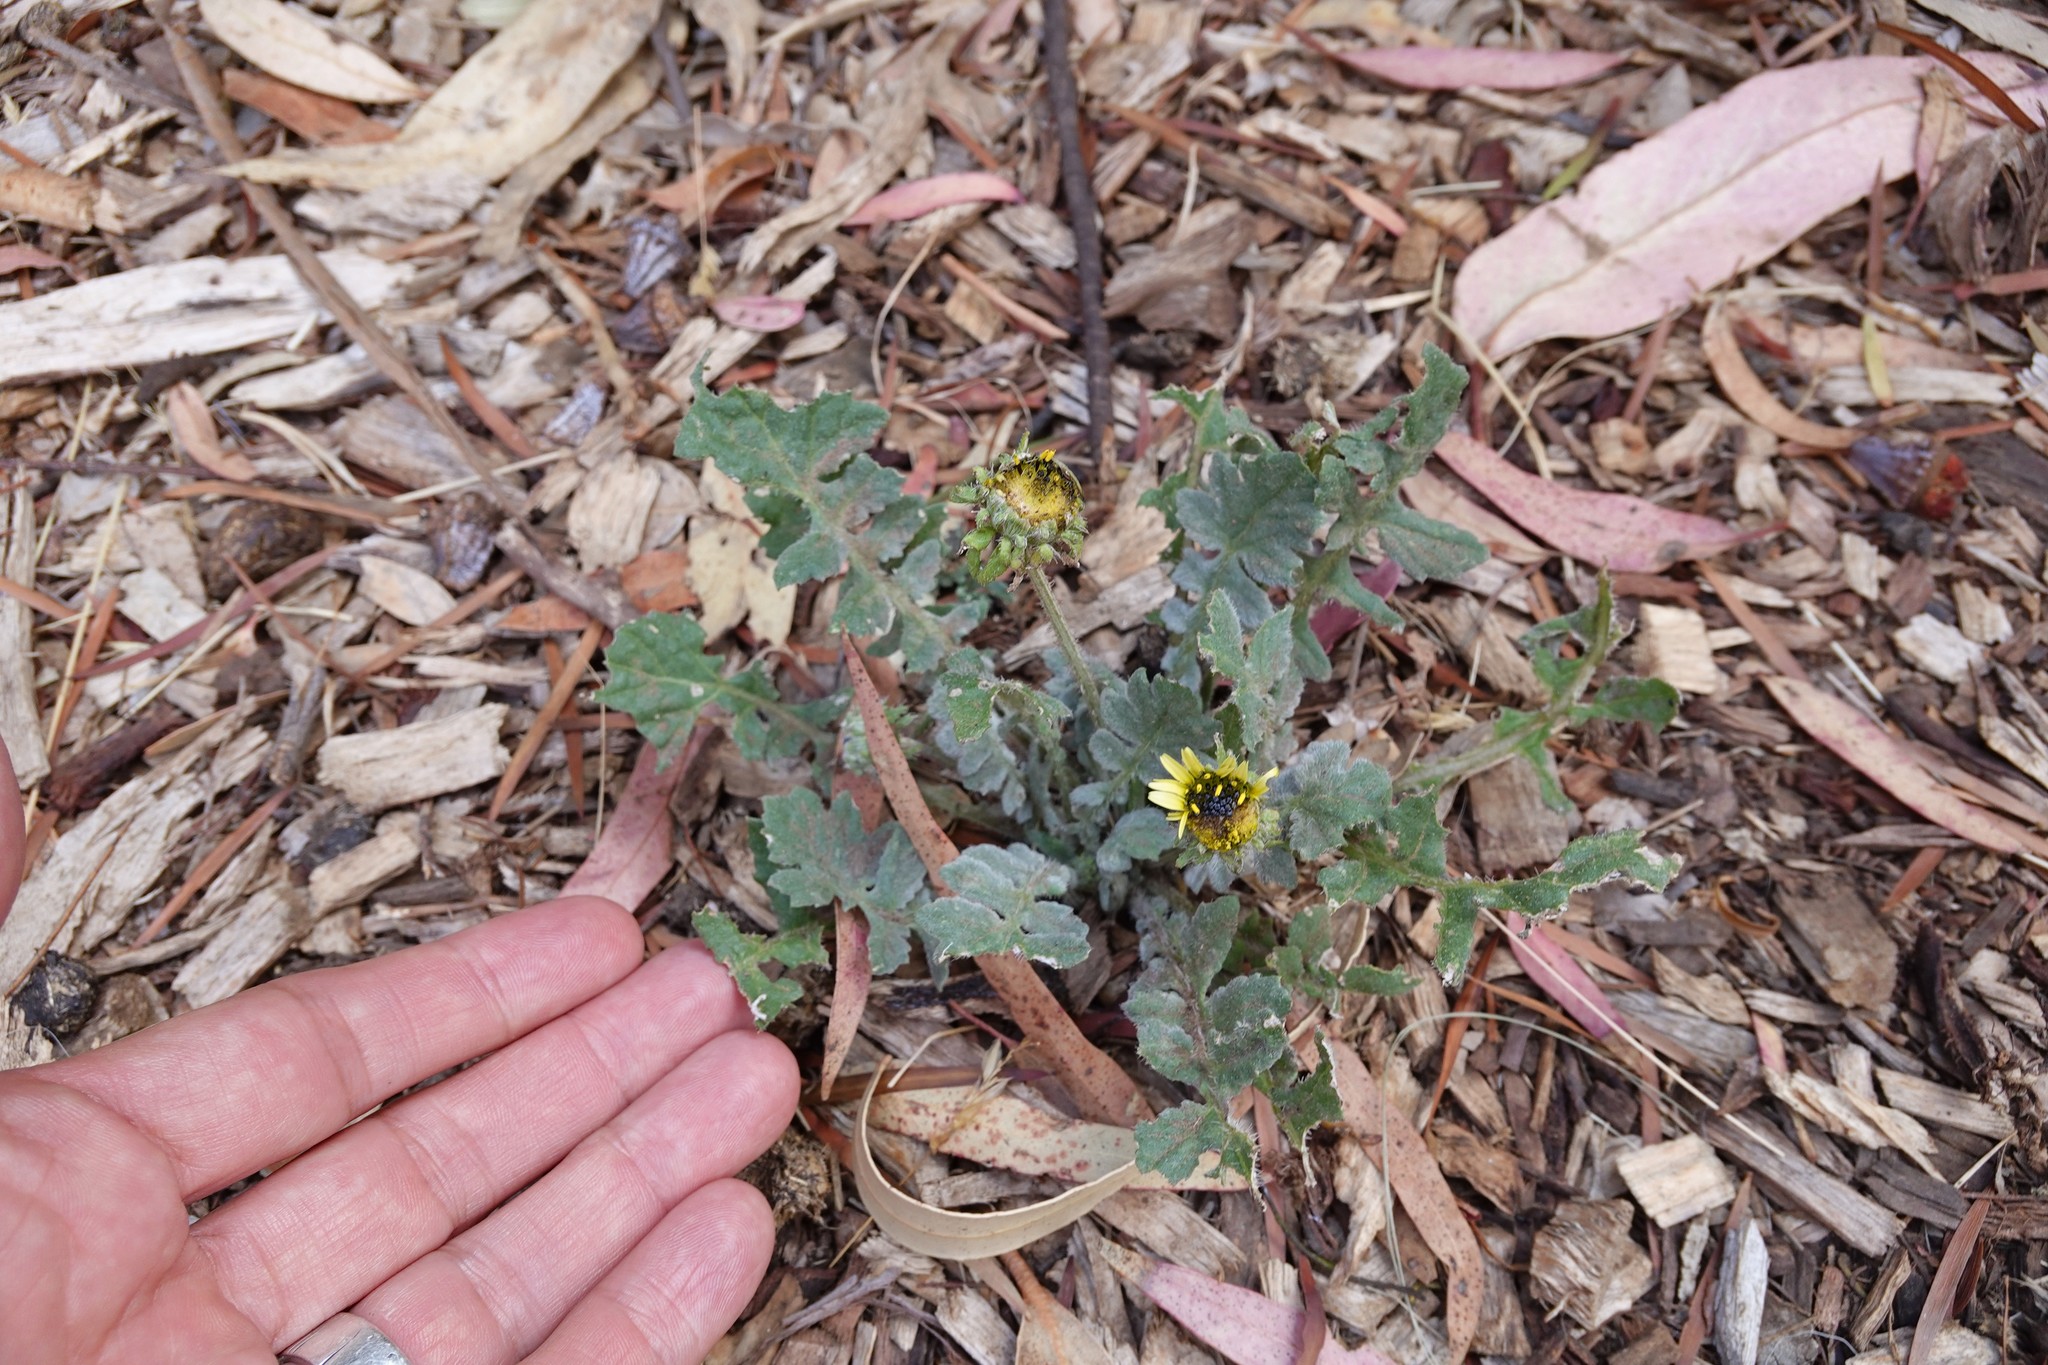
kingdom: Plantae
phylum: Tracheophyta
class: Magnoliopsida
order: Asterales
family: Asteraceae
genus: Arctotheca
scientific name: Arctotheca calendula
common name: Capeweed
